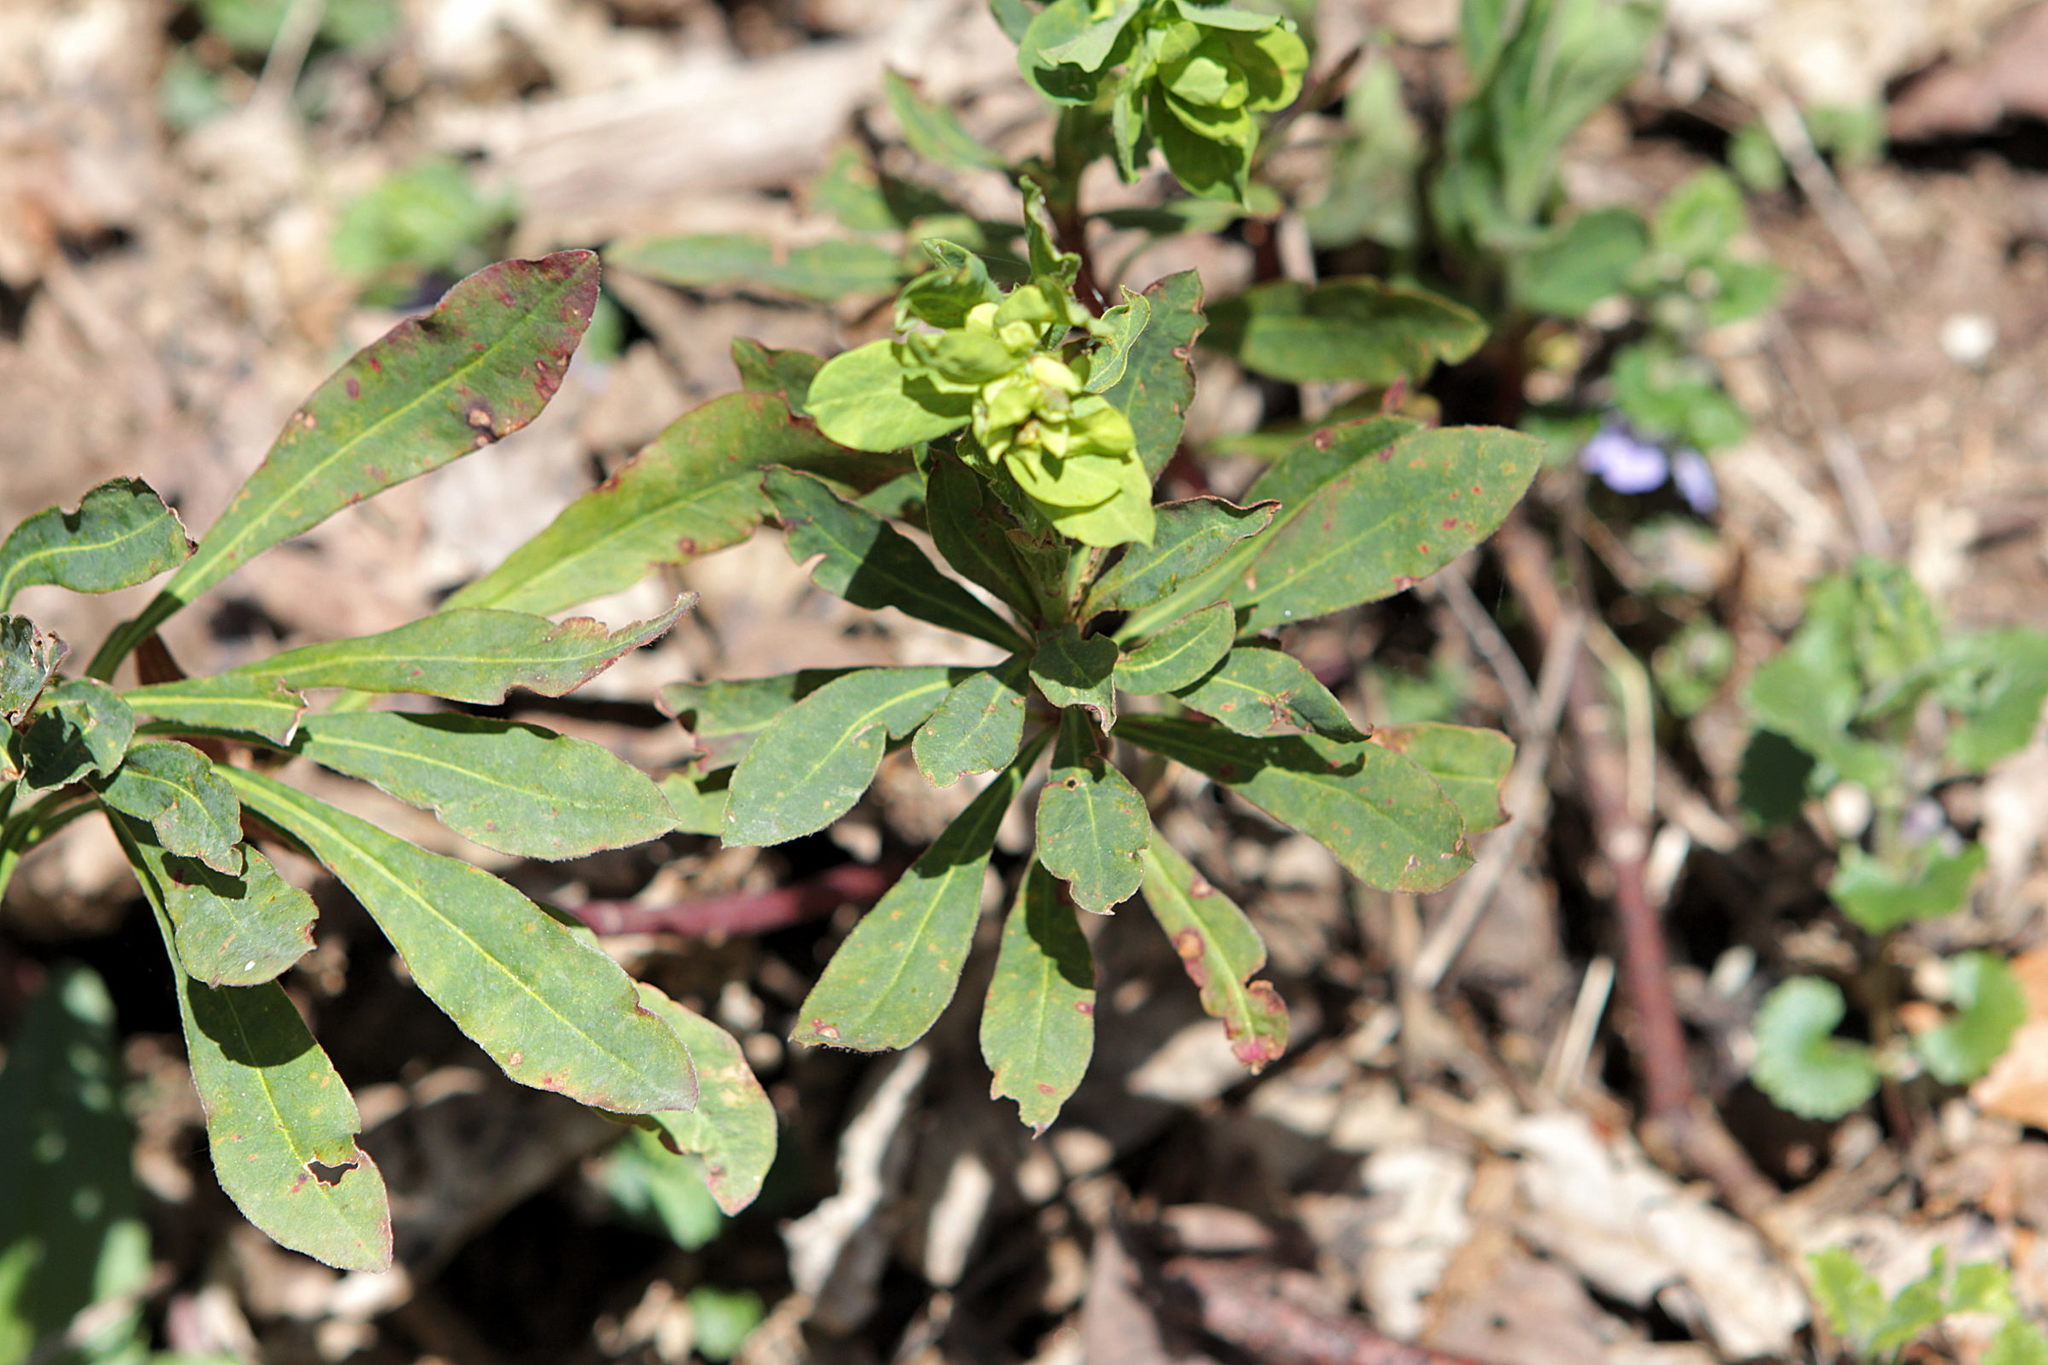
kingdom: Plantae
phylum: Tracheophyta
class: Magnoliopsida
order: Malpighiales
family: Euphorbiaceae
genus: Euphorbia
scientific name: Euphorbia amygdaloides
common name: Wood spurge
